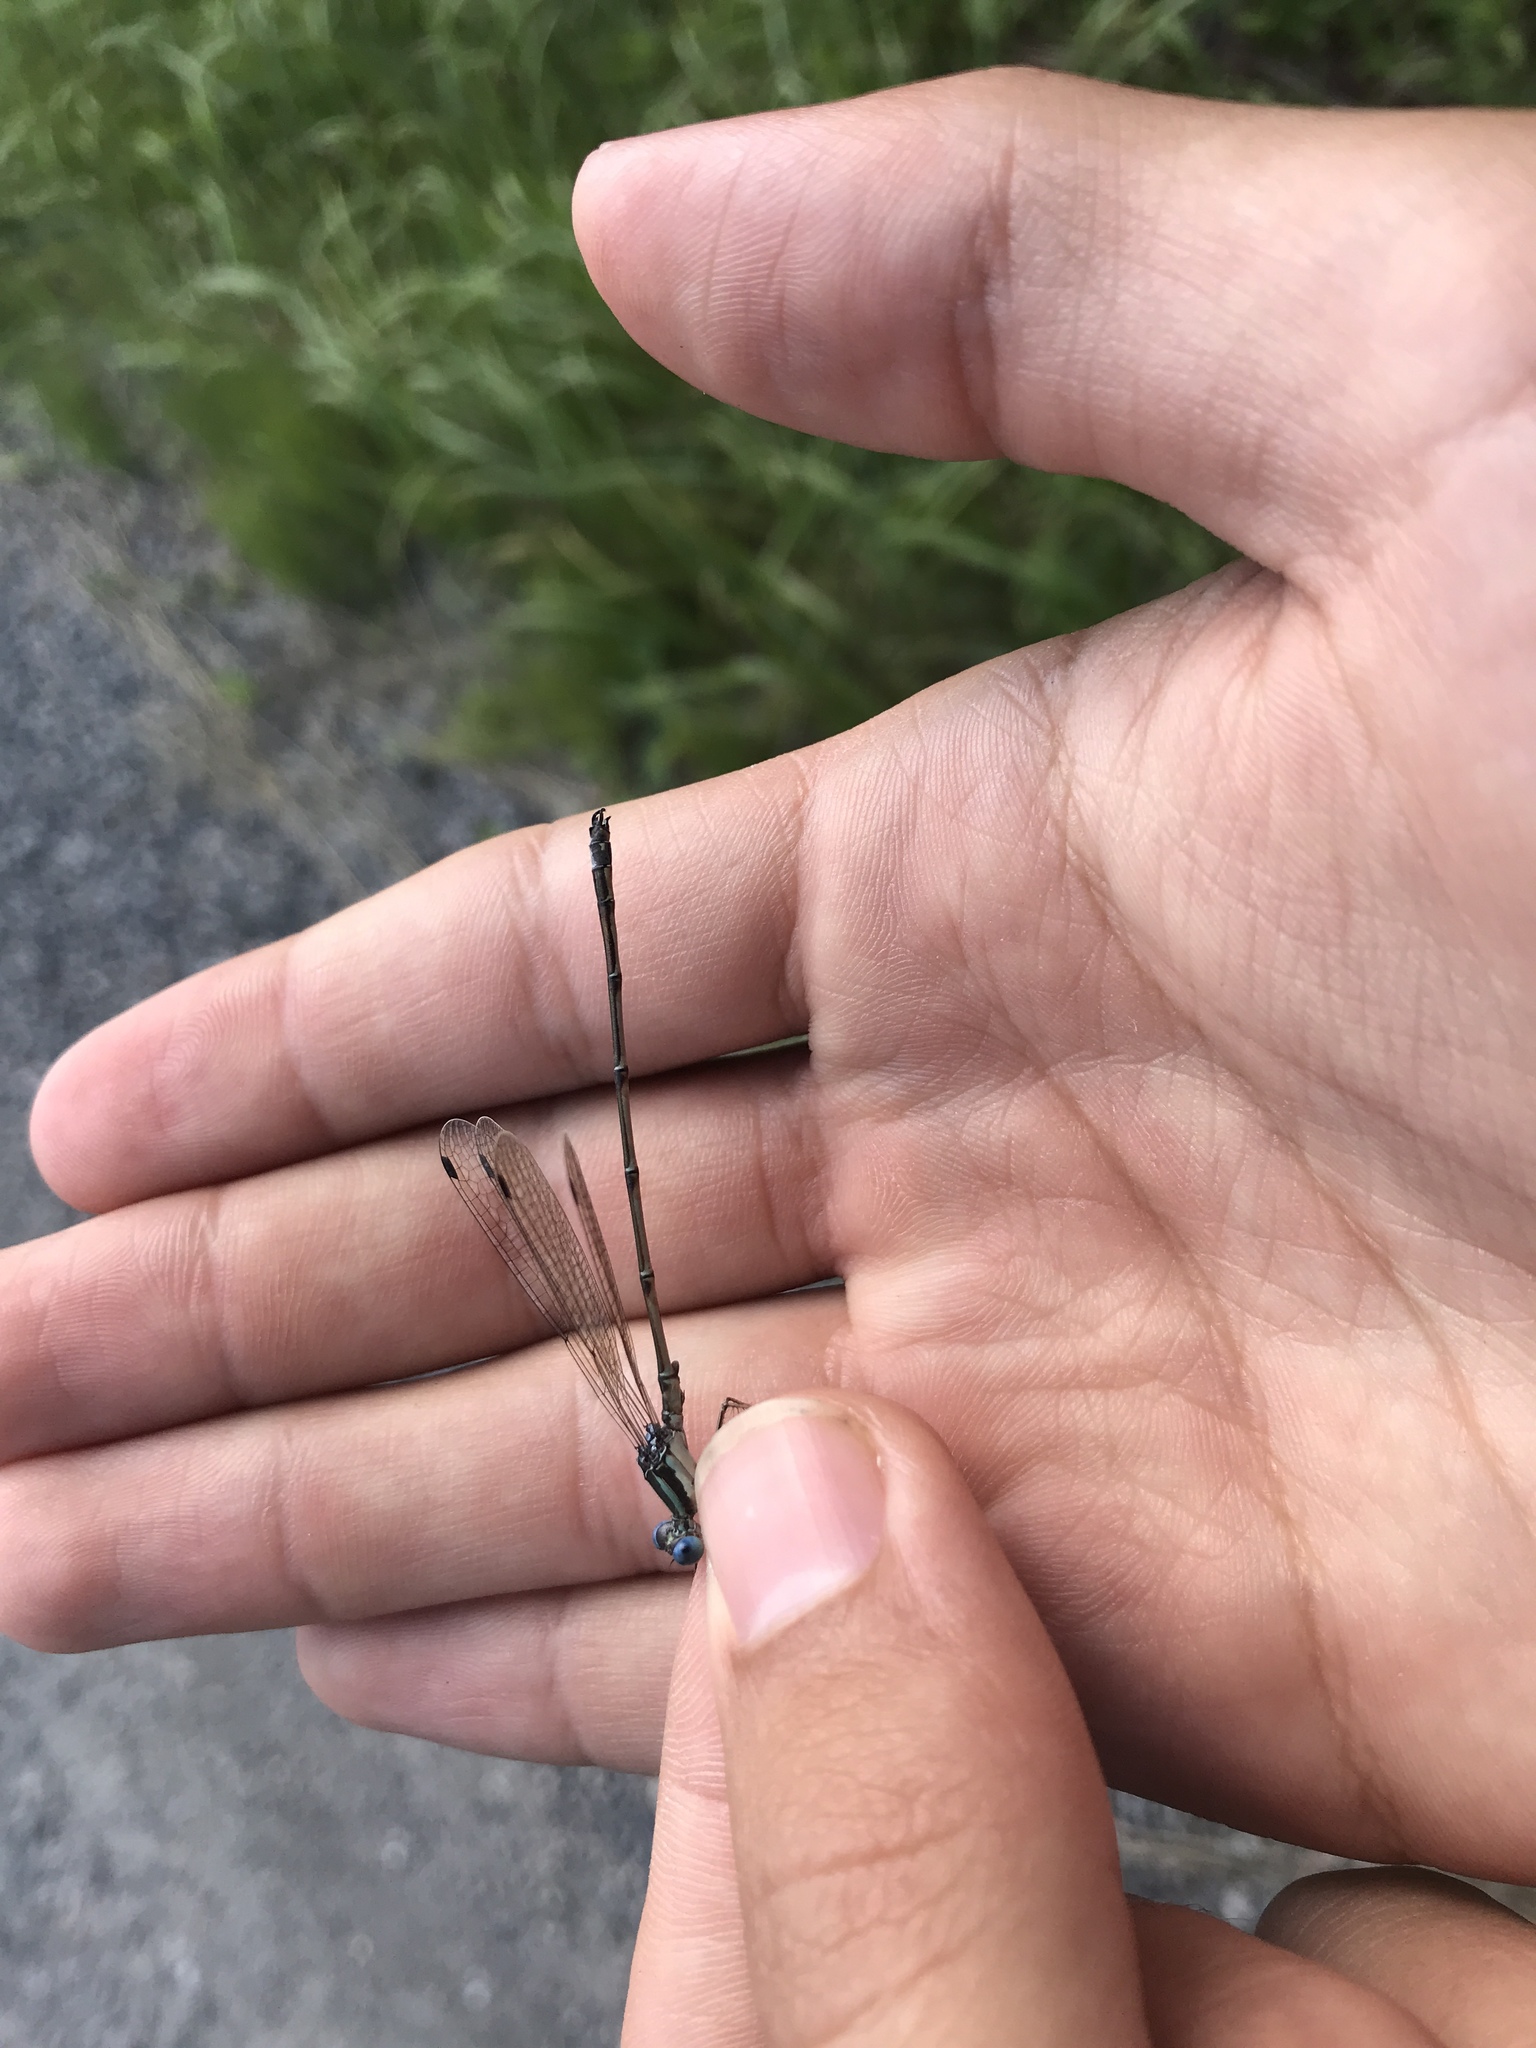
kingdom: Animalia
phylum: Arthropoda
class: Insecta
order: Odonata
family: Lestidae
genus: Lestes
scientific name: Lestes rectangularis
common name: Slender spreadwing
